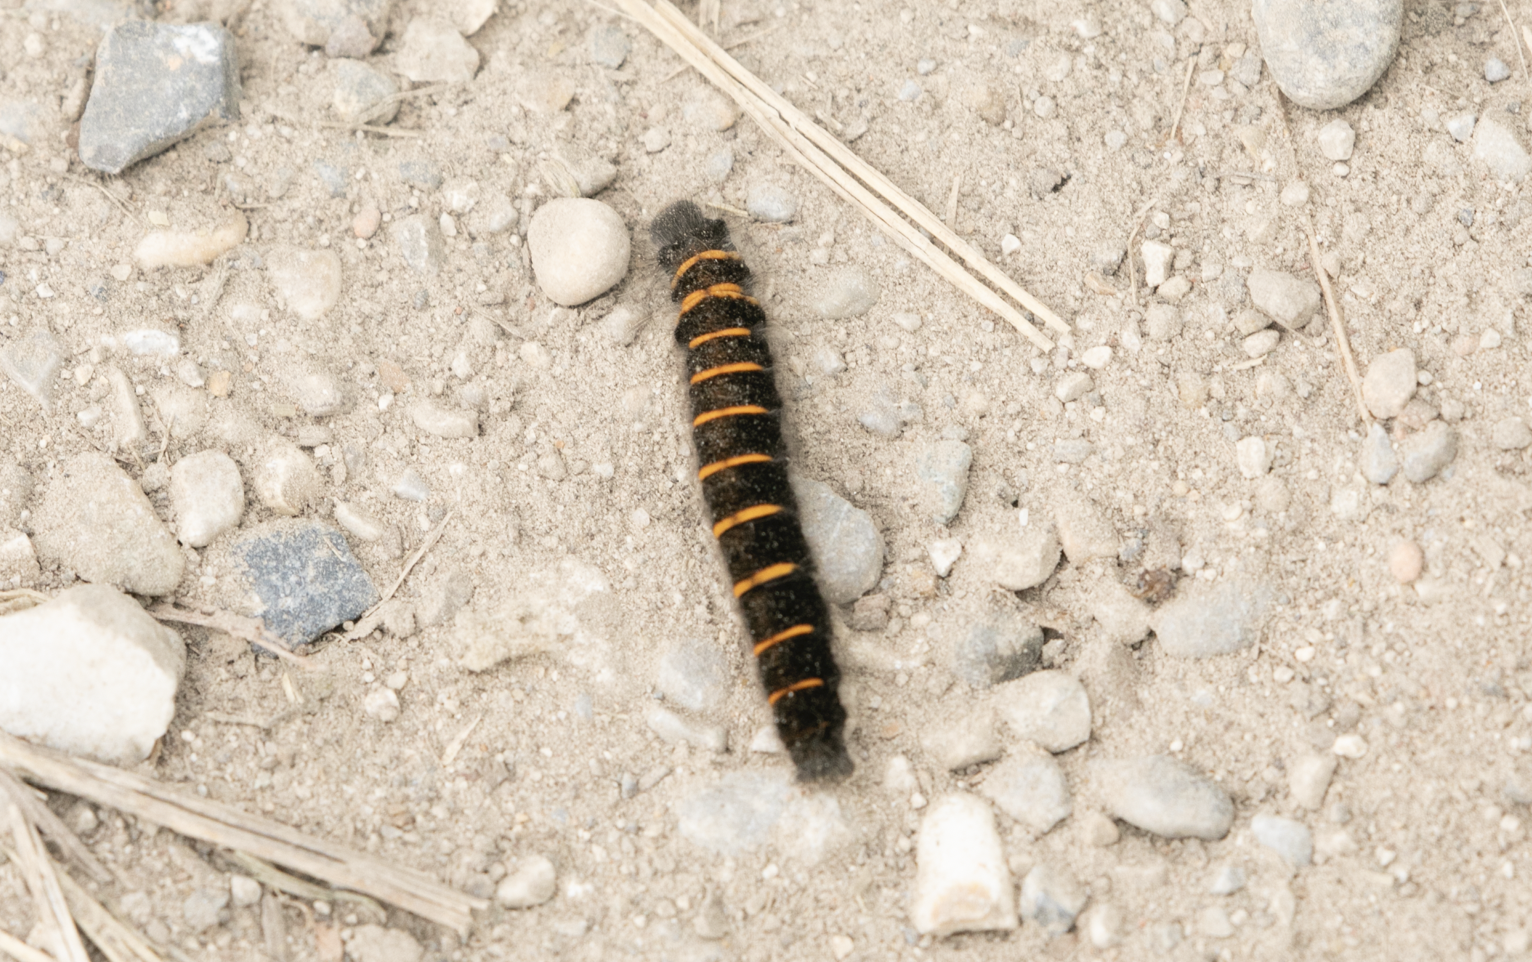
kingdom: Animalia
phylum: Arthropoda
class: Insecta
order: Lepidoptera
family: Lasiocampidae
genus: Macrothylacia
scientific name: Macrothylacia rubi
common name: Fox moth
